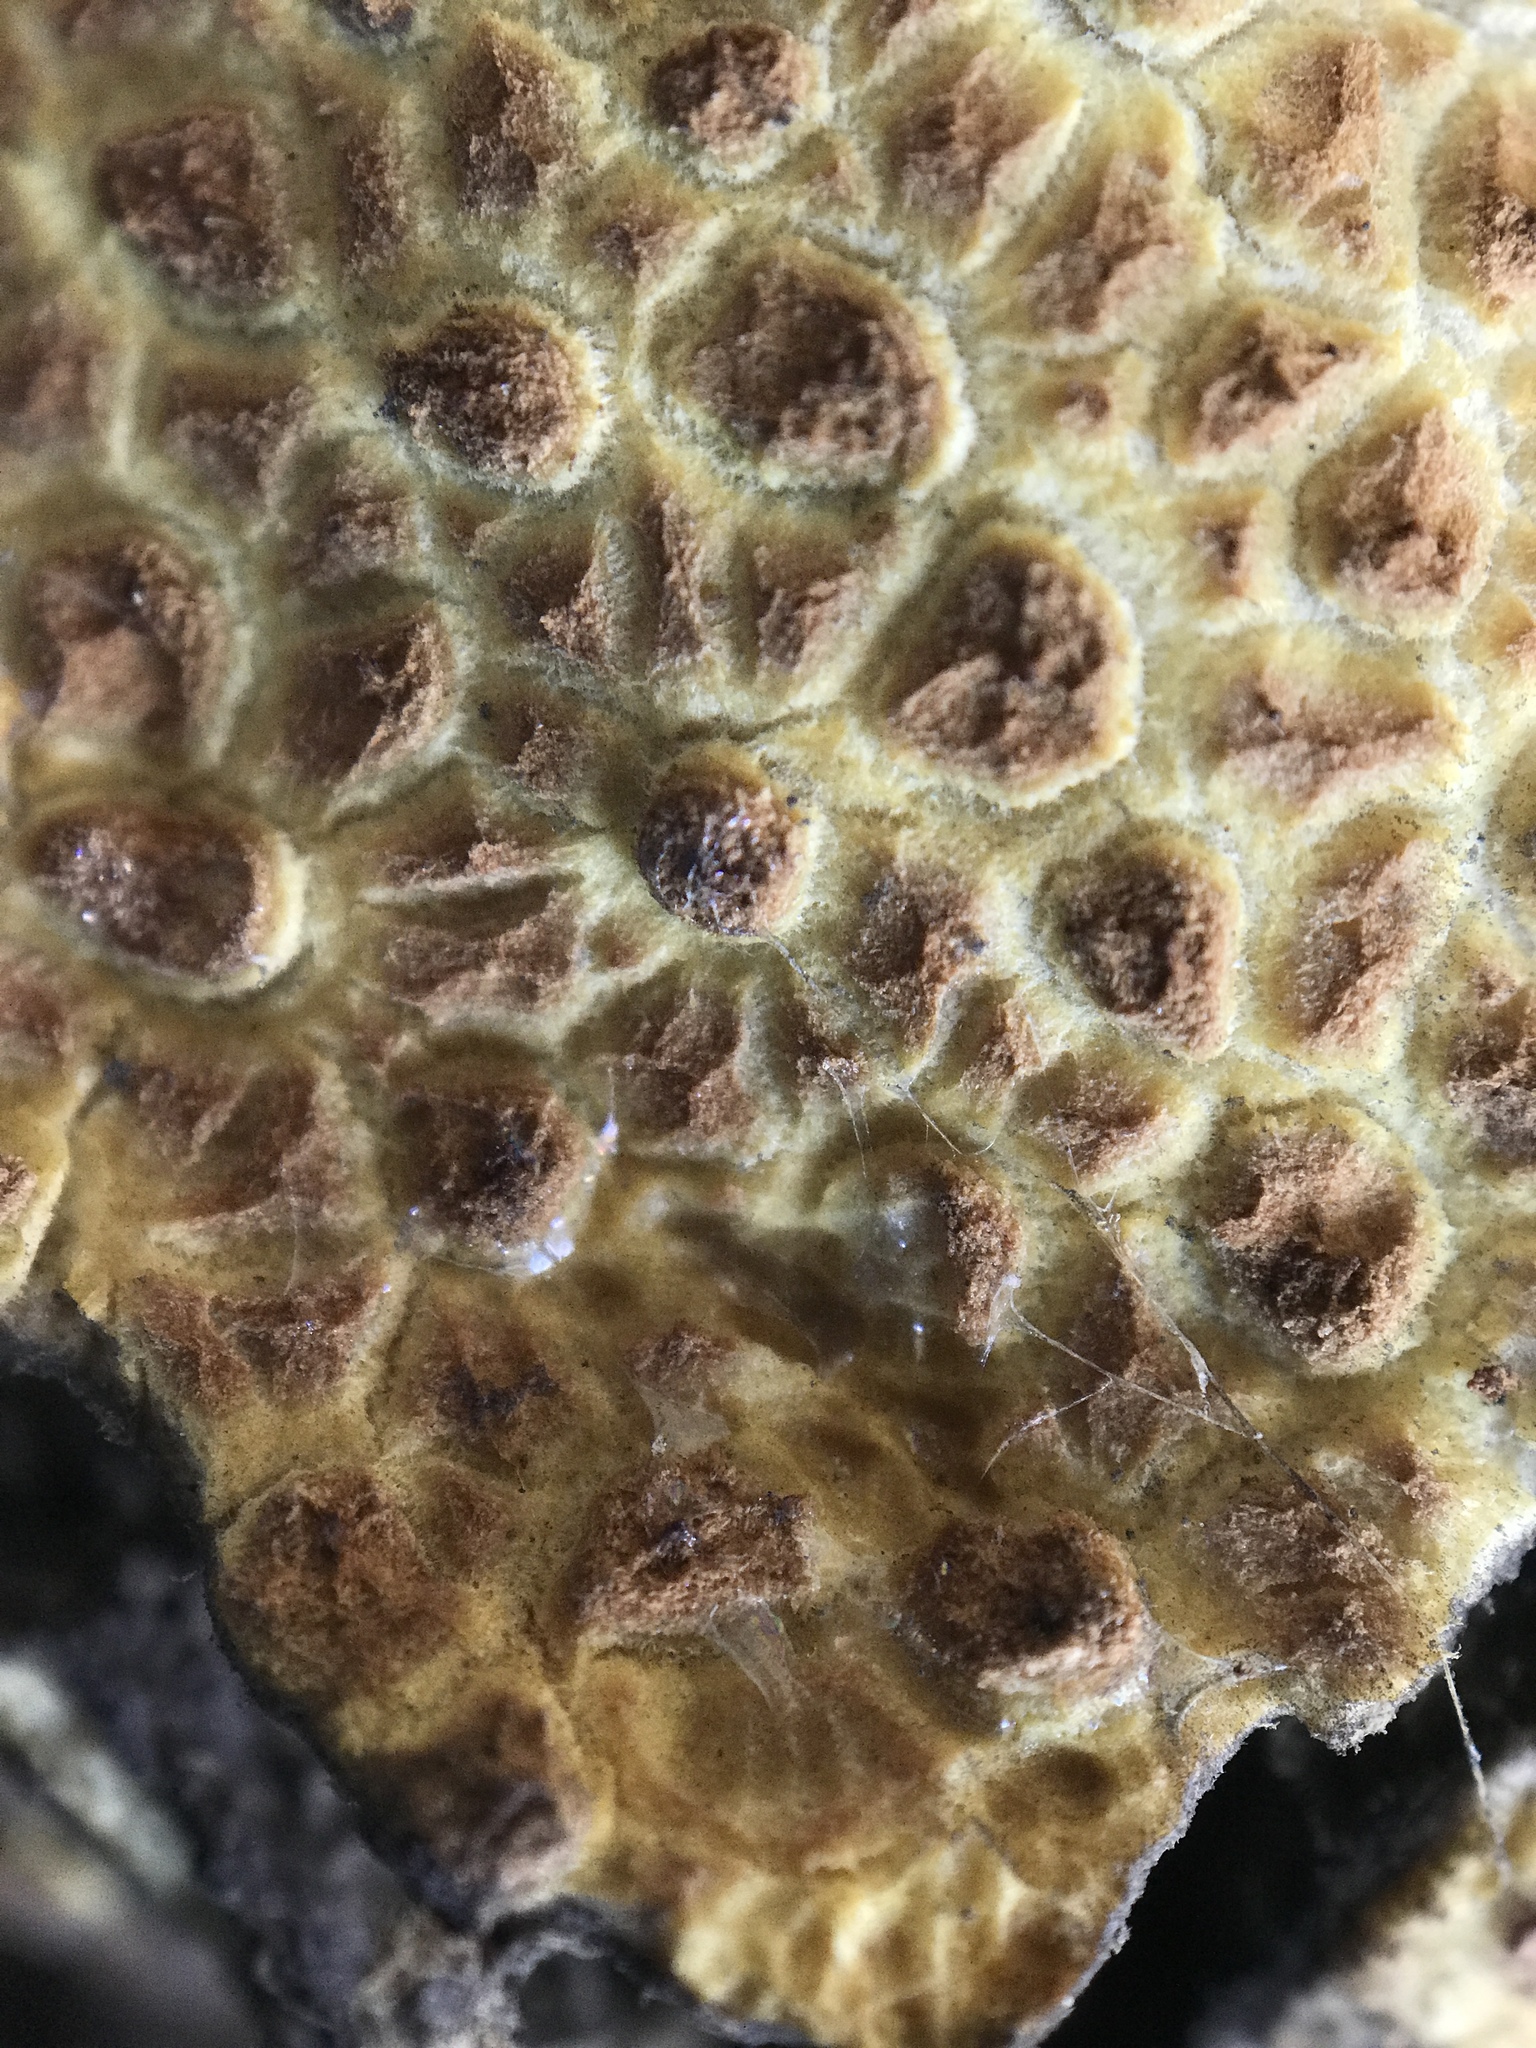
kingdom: Fungi
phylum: Basidiomycota
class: Agaricomycetes
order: Boletales
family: Sclerodermataceae
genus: Scleroderma
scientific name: Scleroderma citrinum
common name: Common earthball
